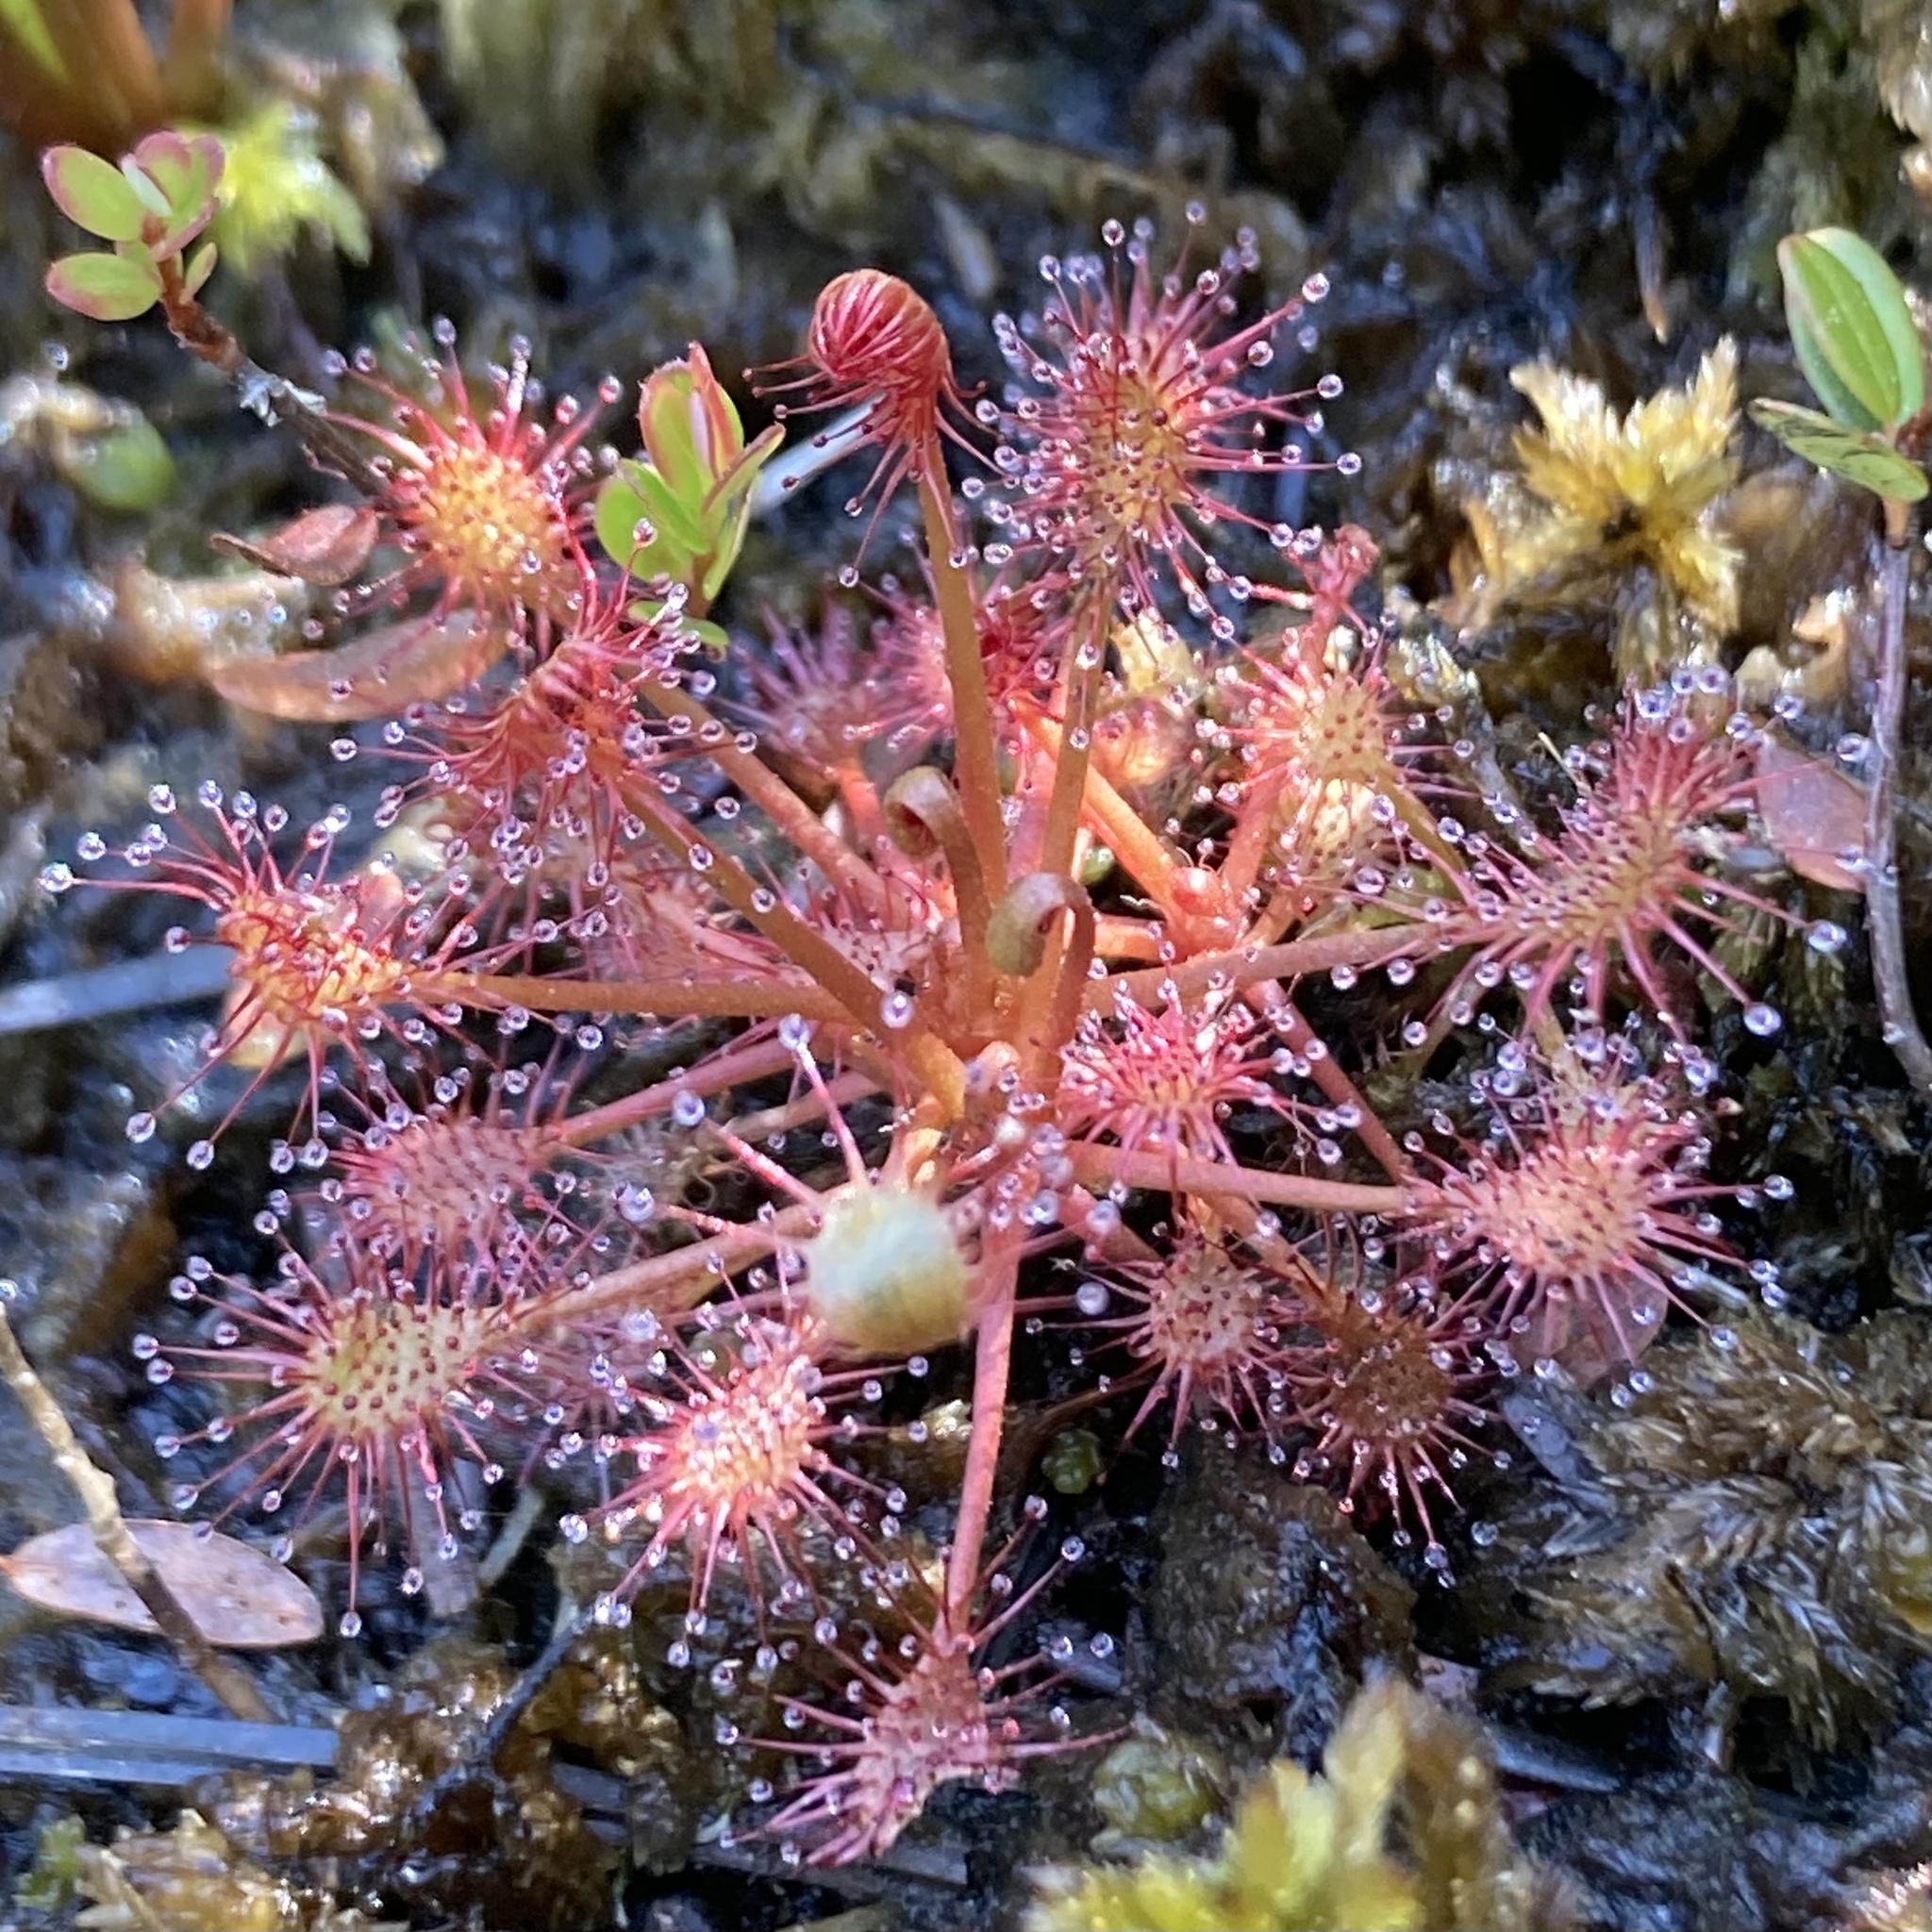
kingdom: Plantae
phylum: Tracheophyta
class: Magnoliopsida
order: Caryophyllales
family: Droseraceae
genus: Drosera
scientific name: Drosera intermedia
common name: Oblong-leaved sundew
